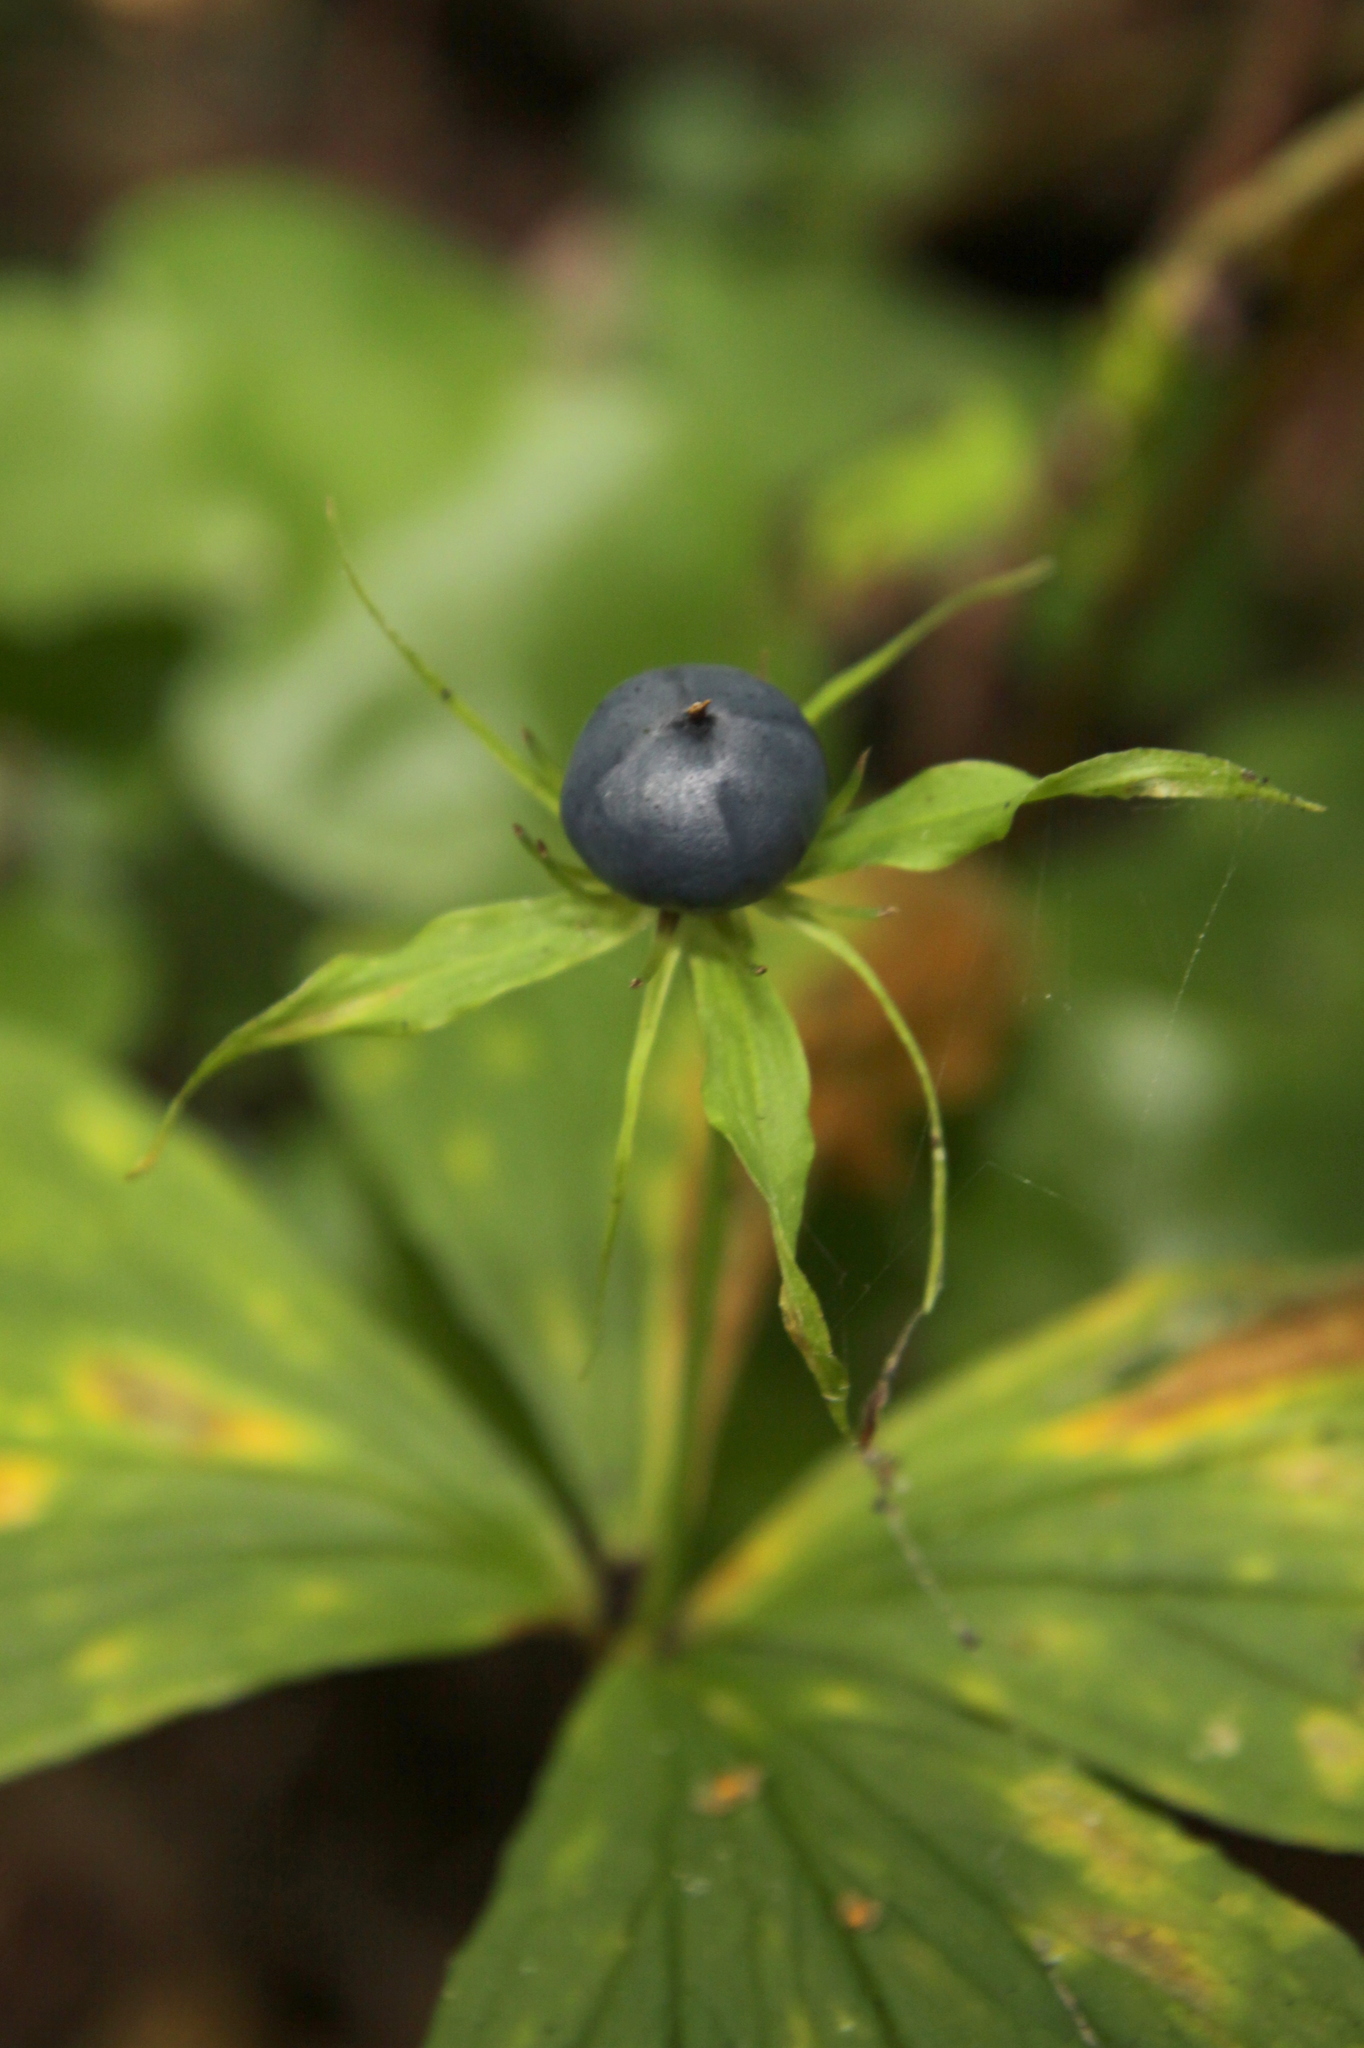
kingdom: Plantae
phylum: Tracheophyta
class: Liliopsida
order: Liliales
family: Melanthiaceae
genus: Paris
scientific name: Paris quadrifolia
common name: Herb-paris
